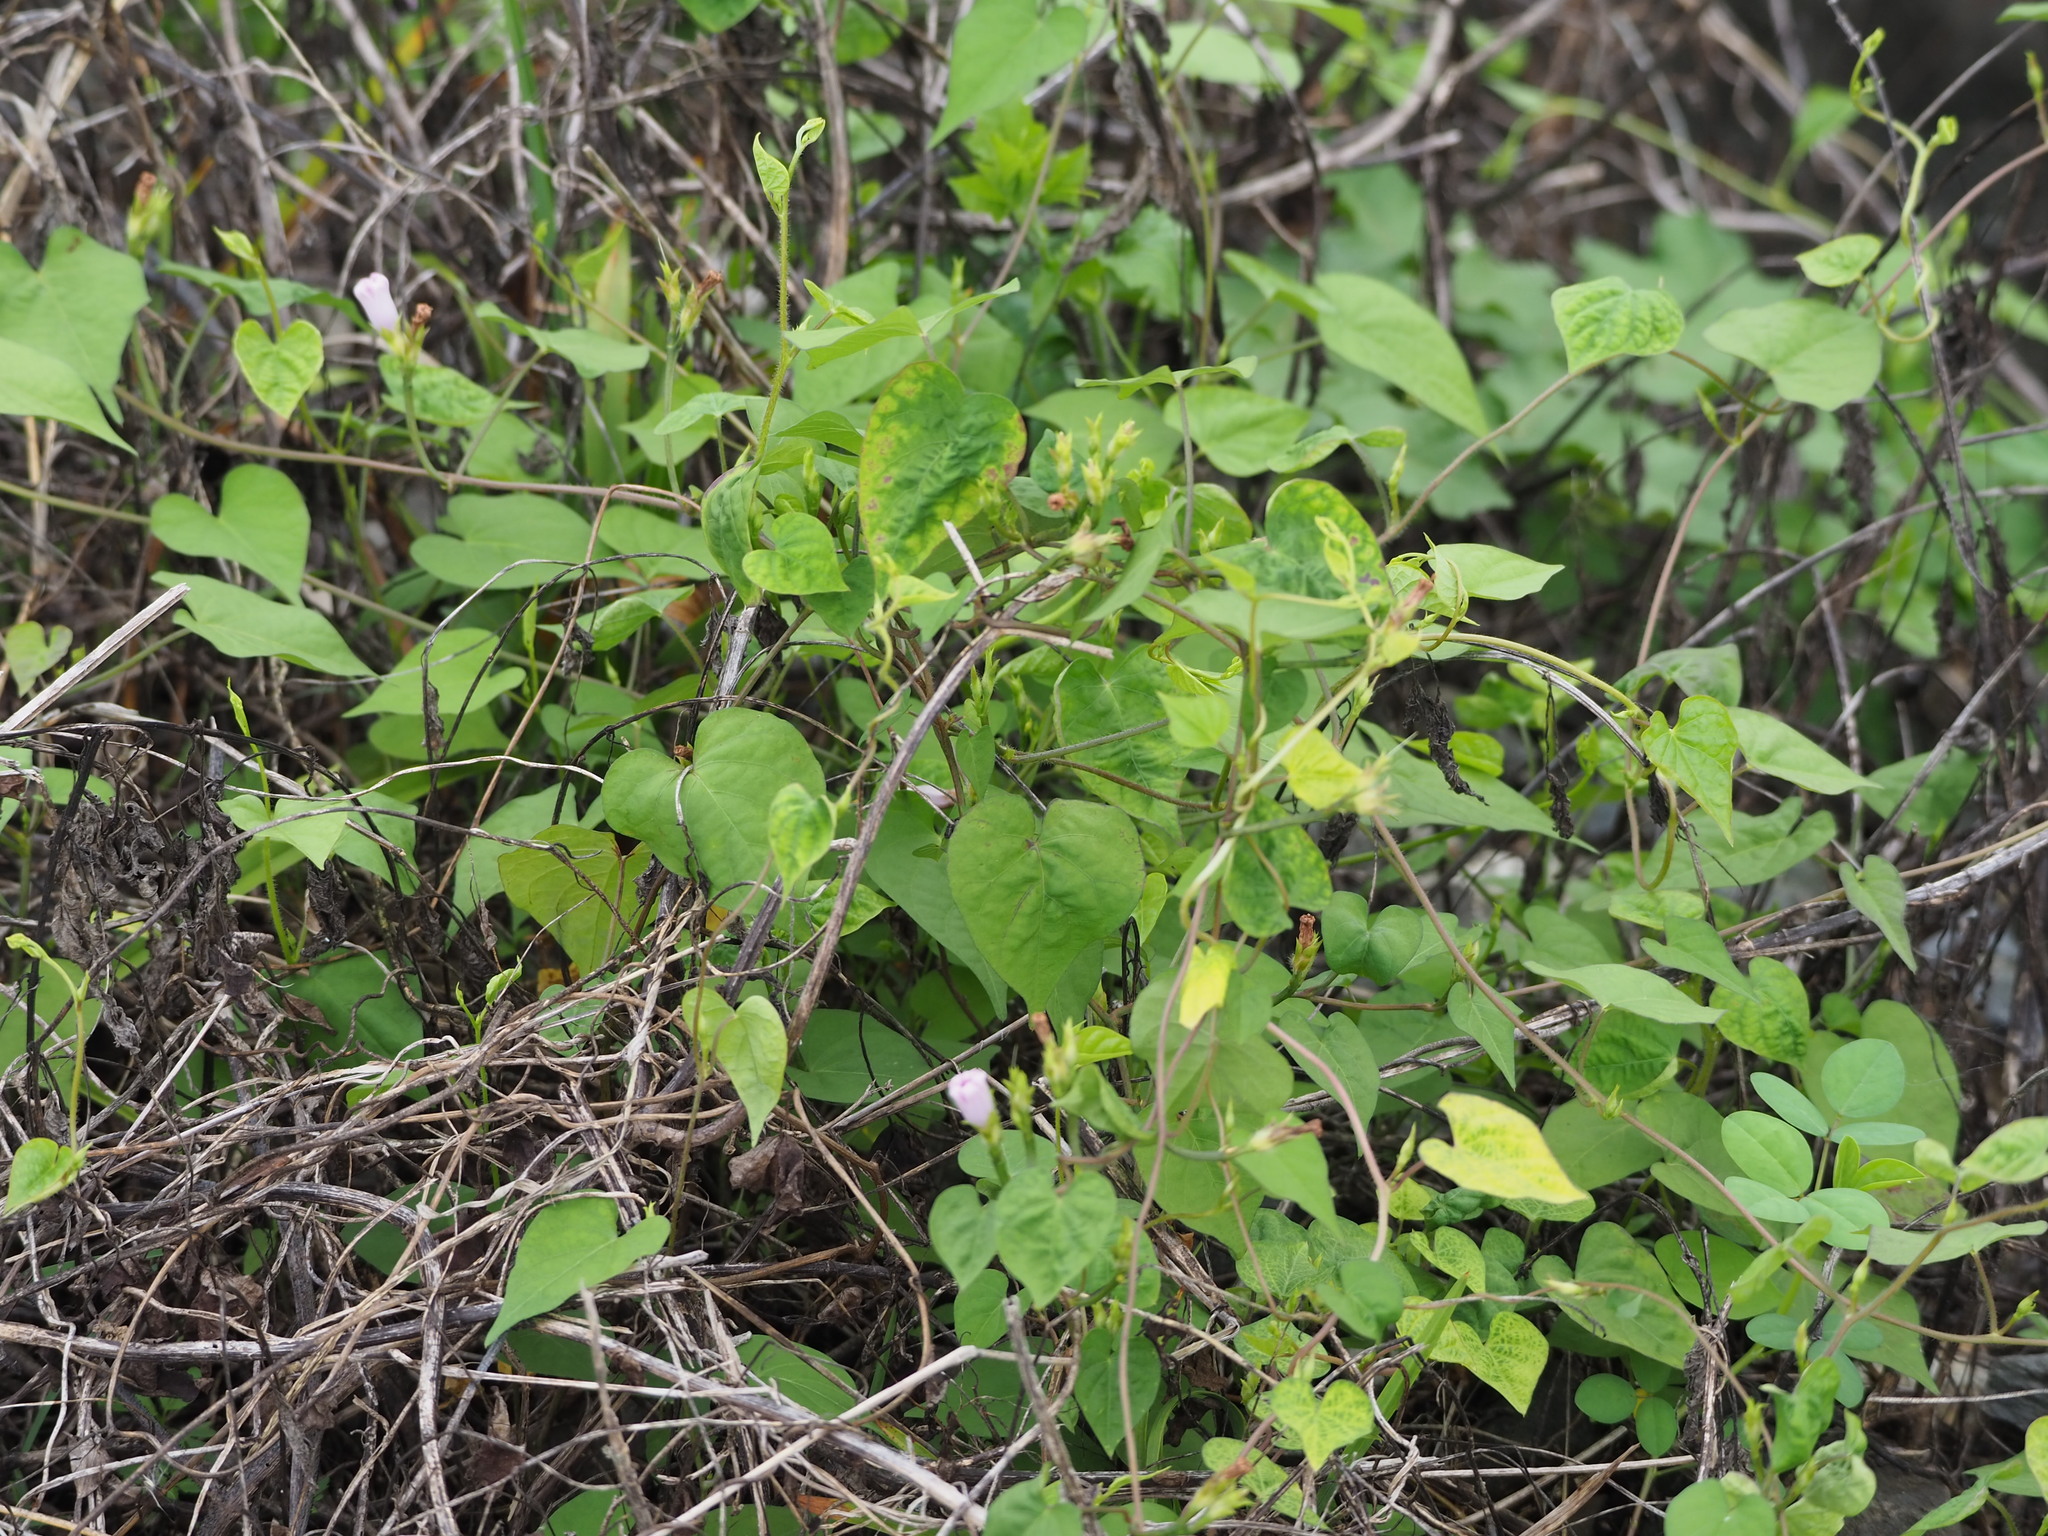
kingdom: Plantae
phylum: Tracheophyta
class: Magnoliopsida
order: Solanales
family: Convolvulaceae
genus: Ipomoea
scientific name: Ipomoea triloba
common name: Little-bell
